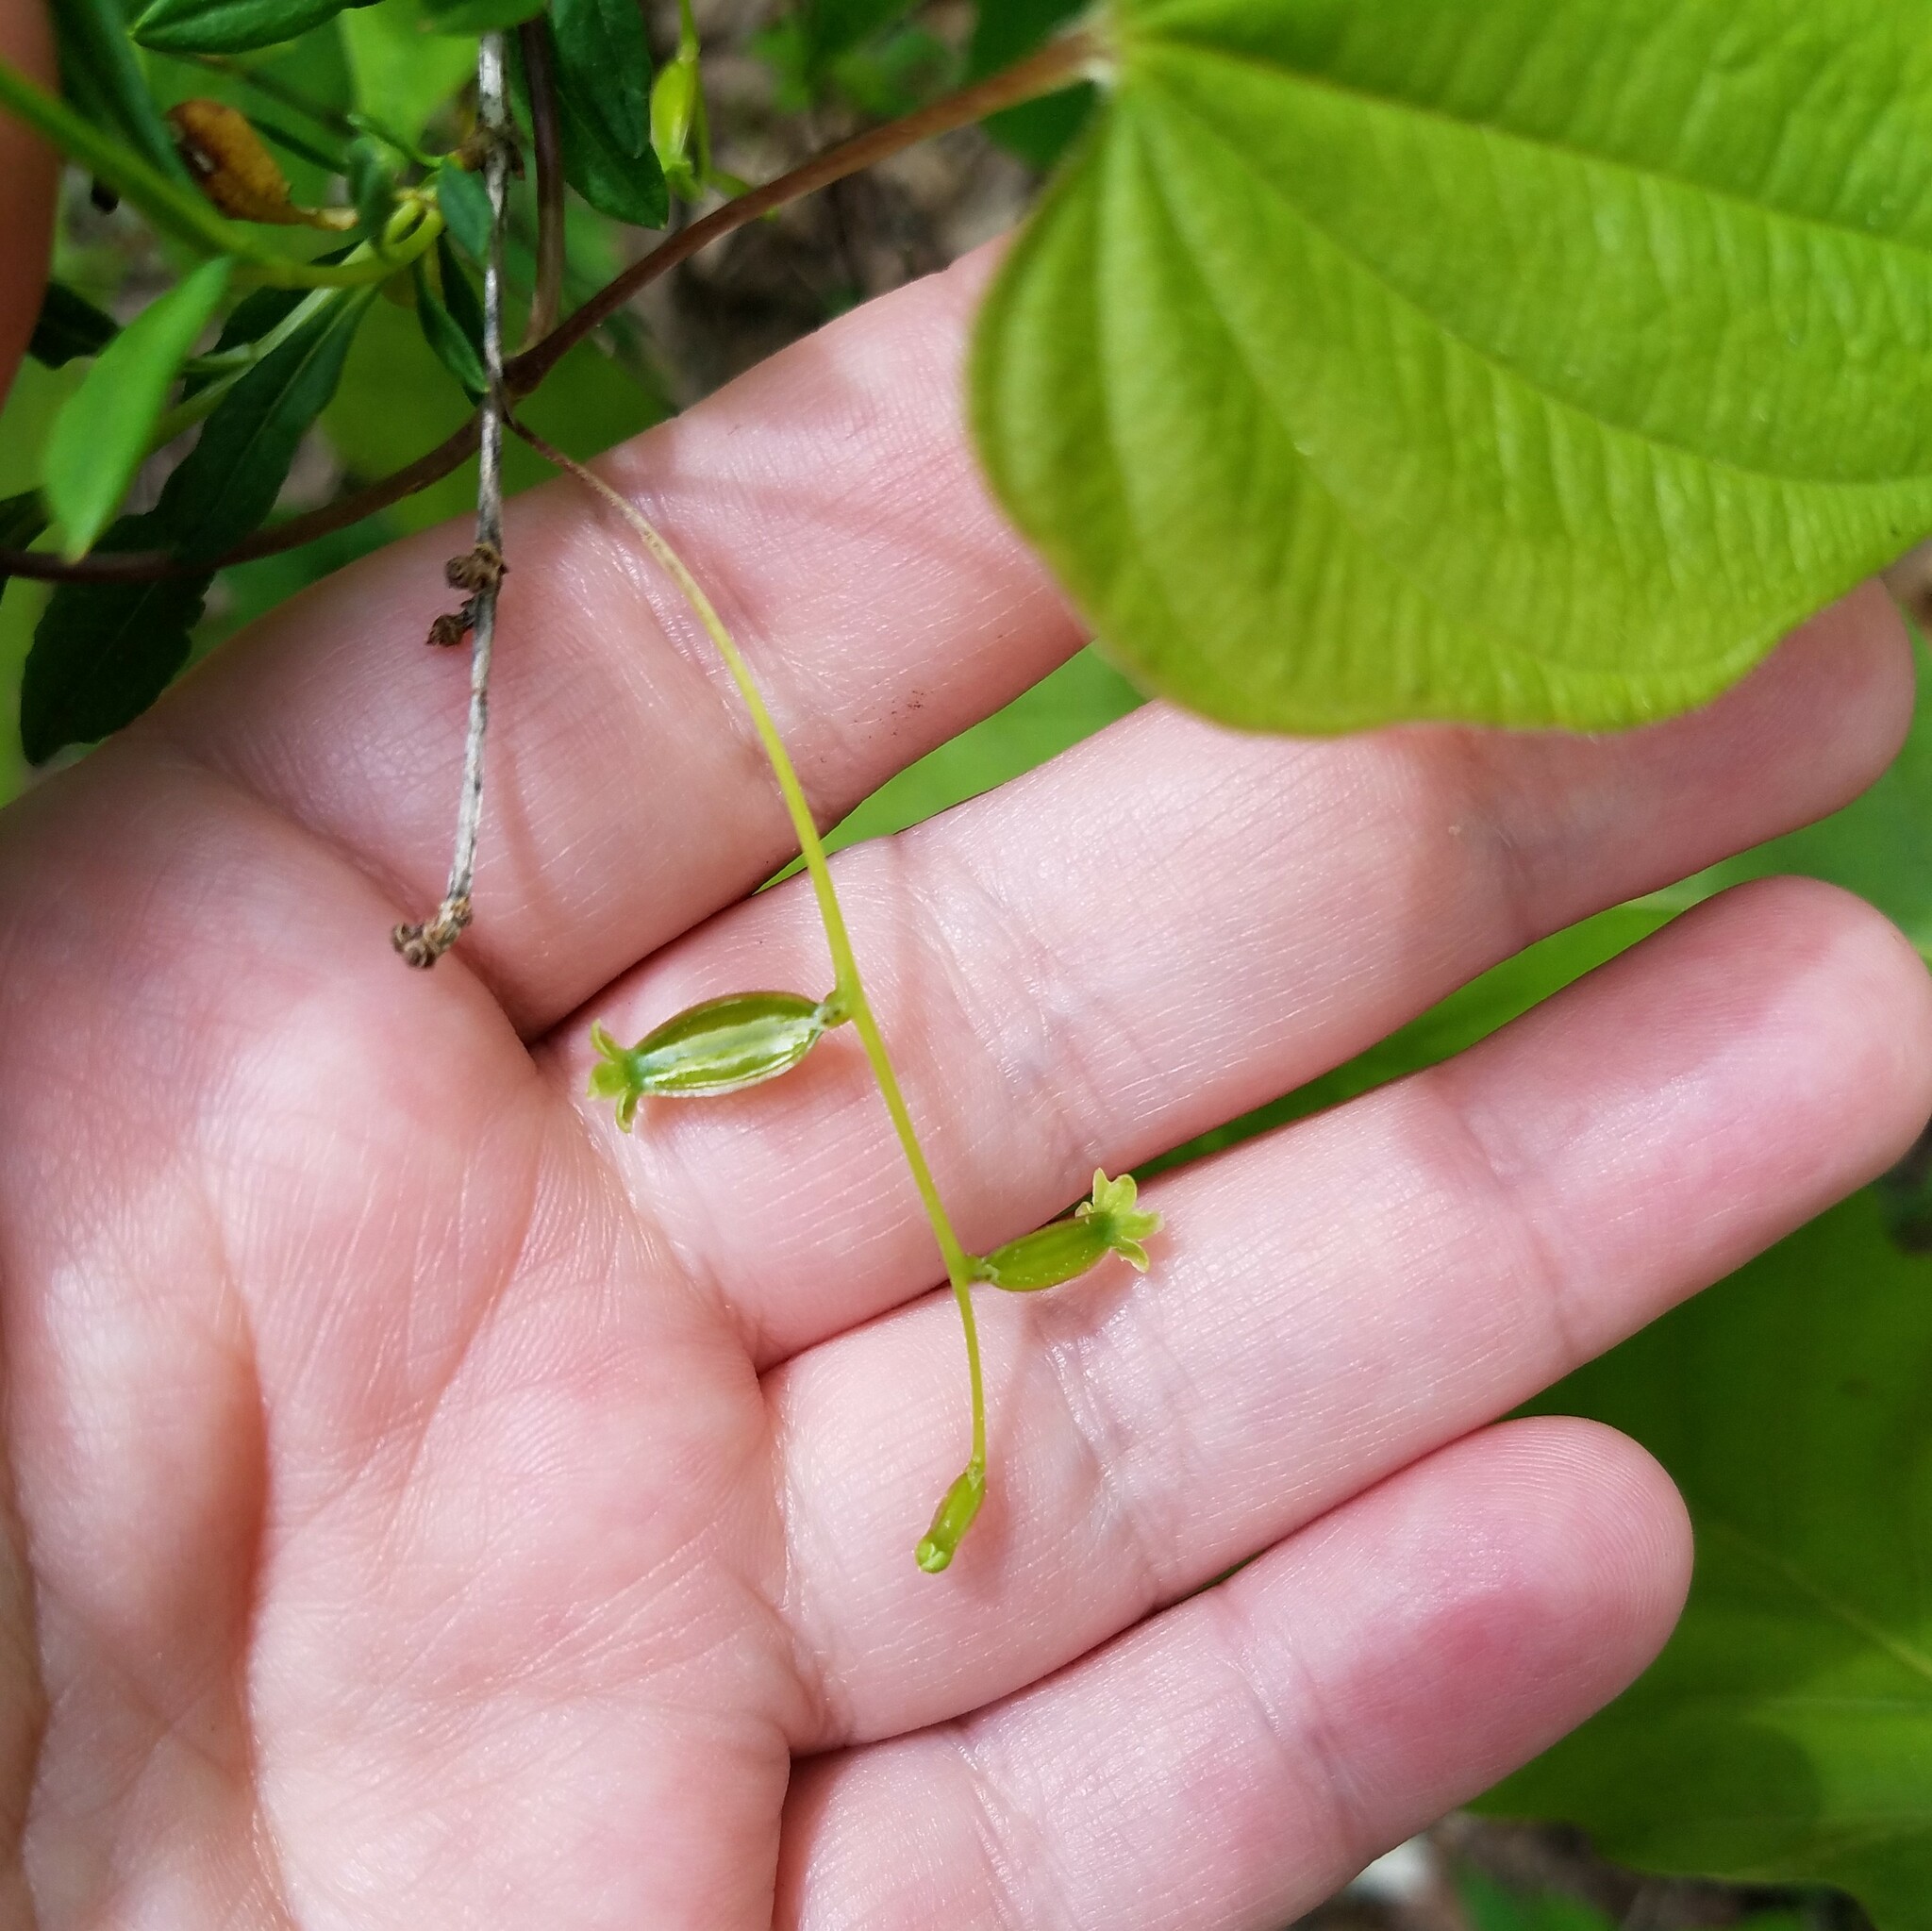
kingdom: Plantae
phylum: Tracheophyta
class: Liliopsida
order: Dioscoreales
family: Dioscoreaceae
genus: Dioscorea
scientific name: Dioscorea villosa
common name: Wild yam
